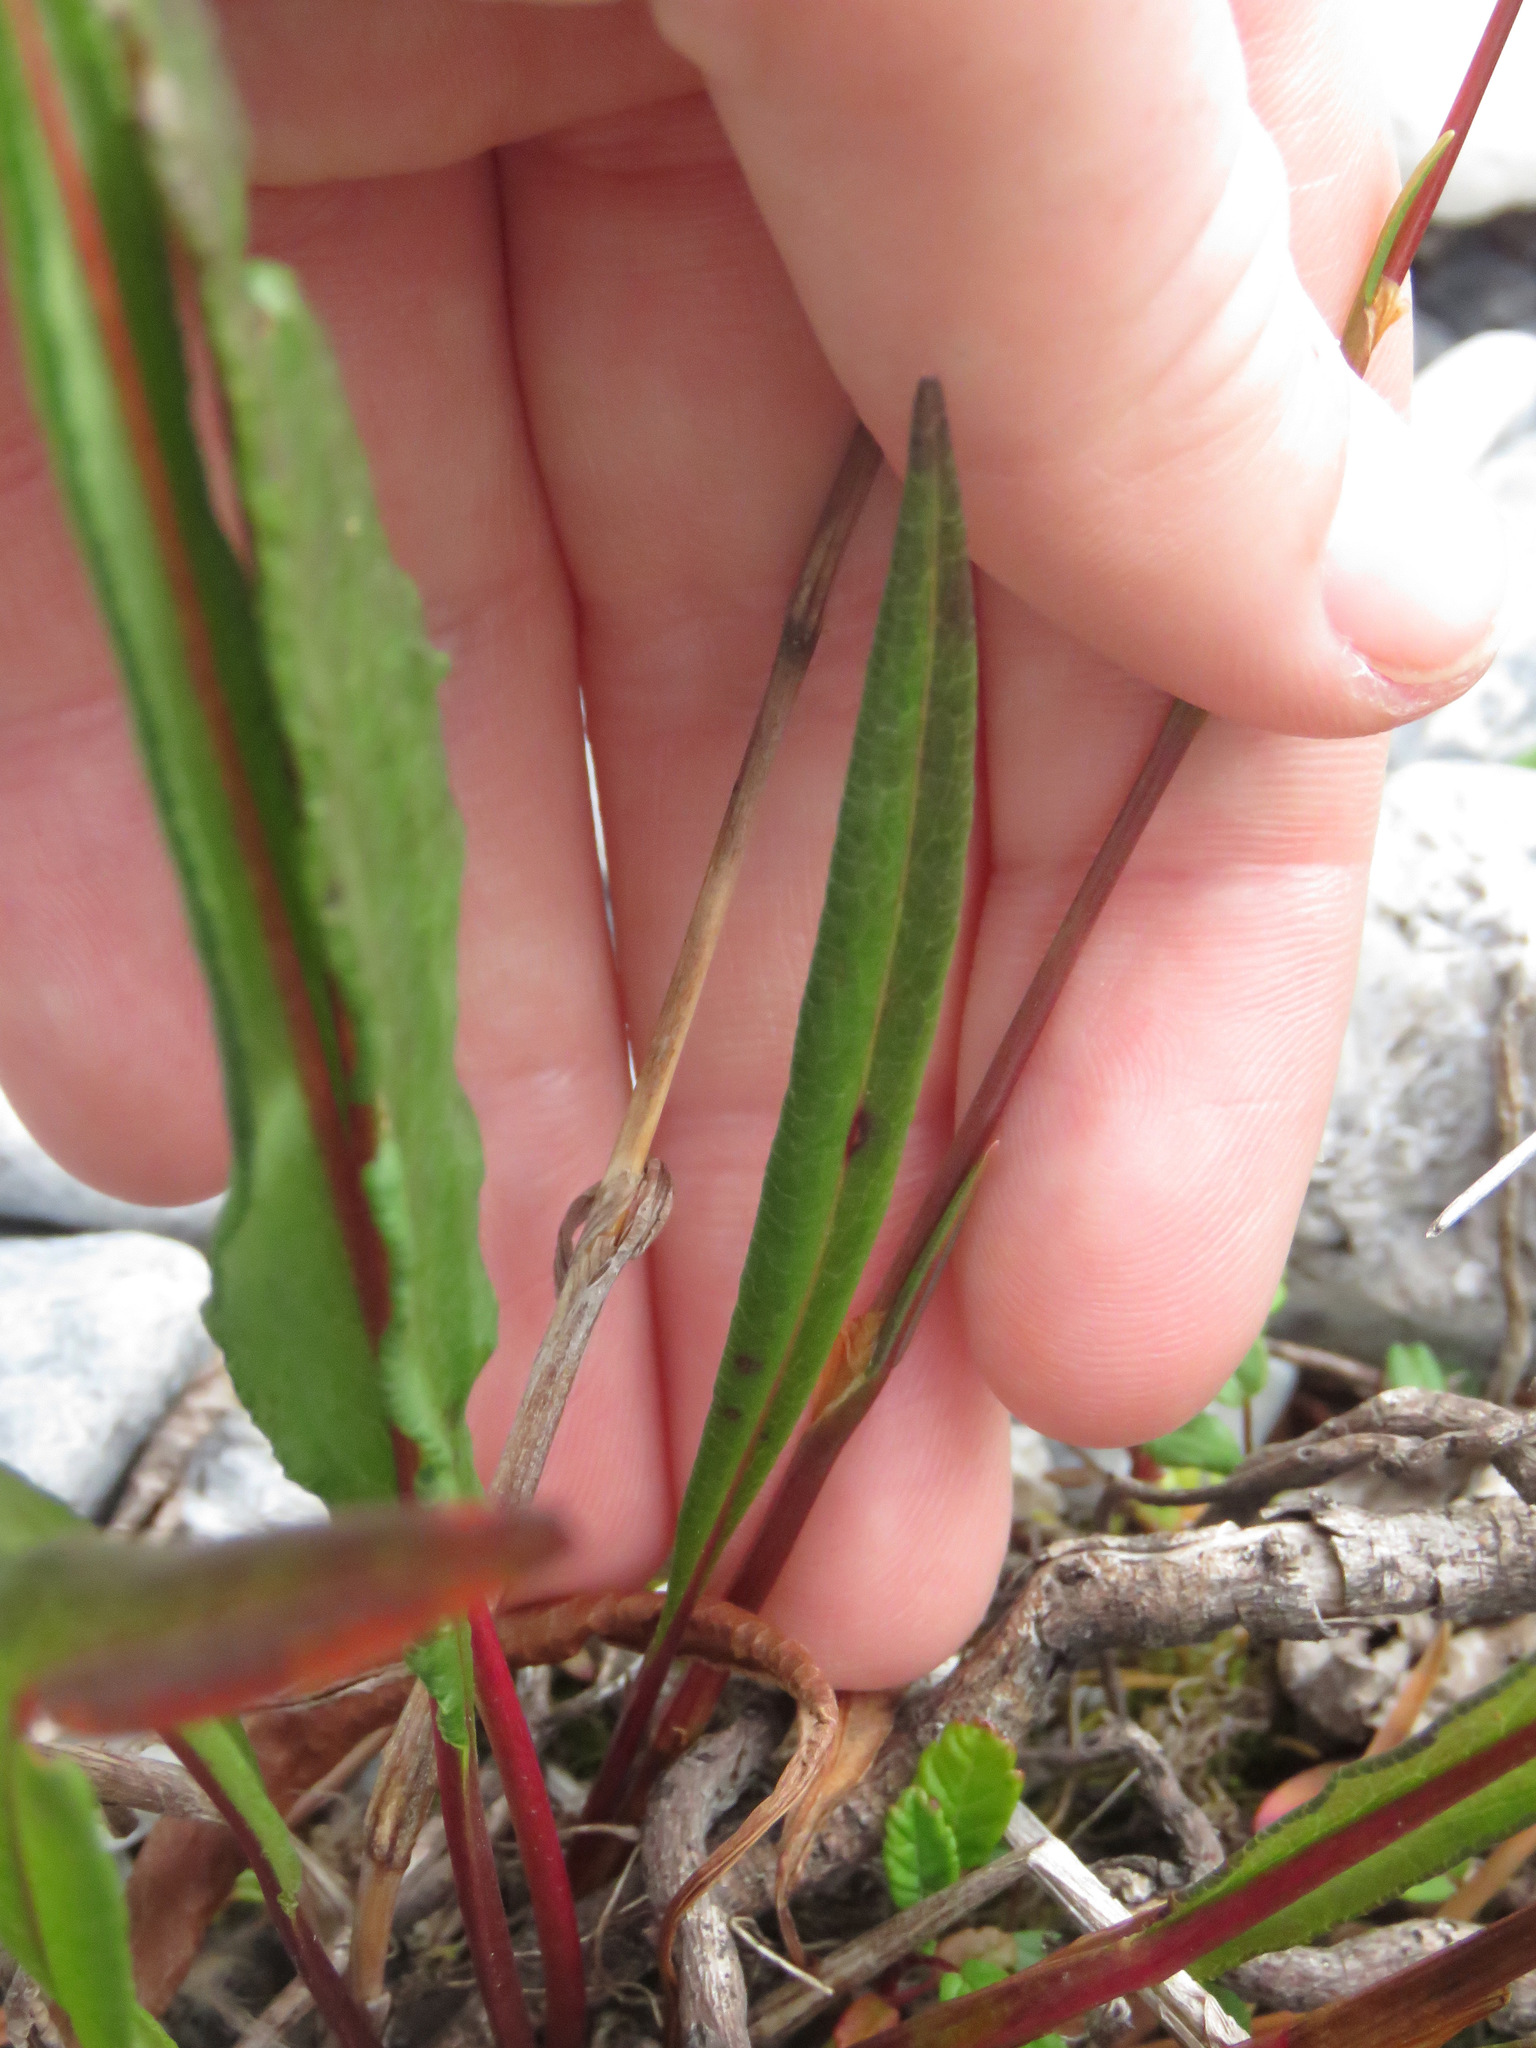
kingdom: Plantae
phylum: Tracheophyta
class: Magnoliopsida
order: Caryophyllales
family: Polygonaceae
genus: Bistorta
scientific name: Bistorta vivipara
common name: Alpine bistort
